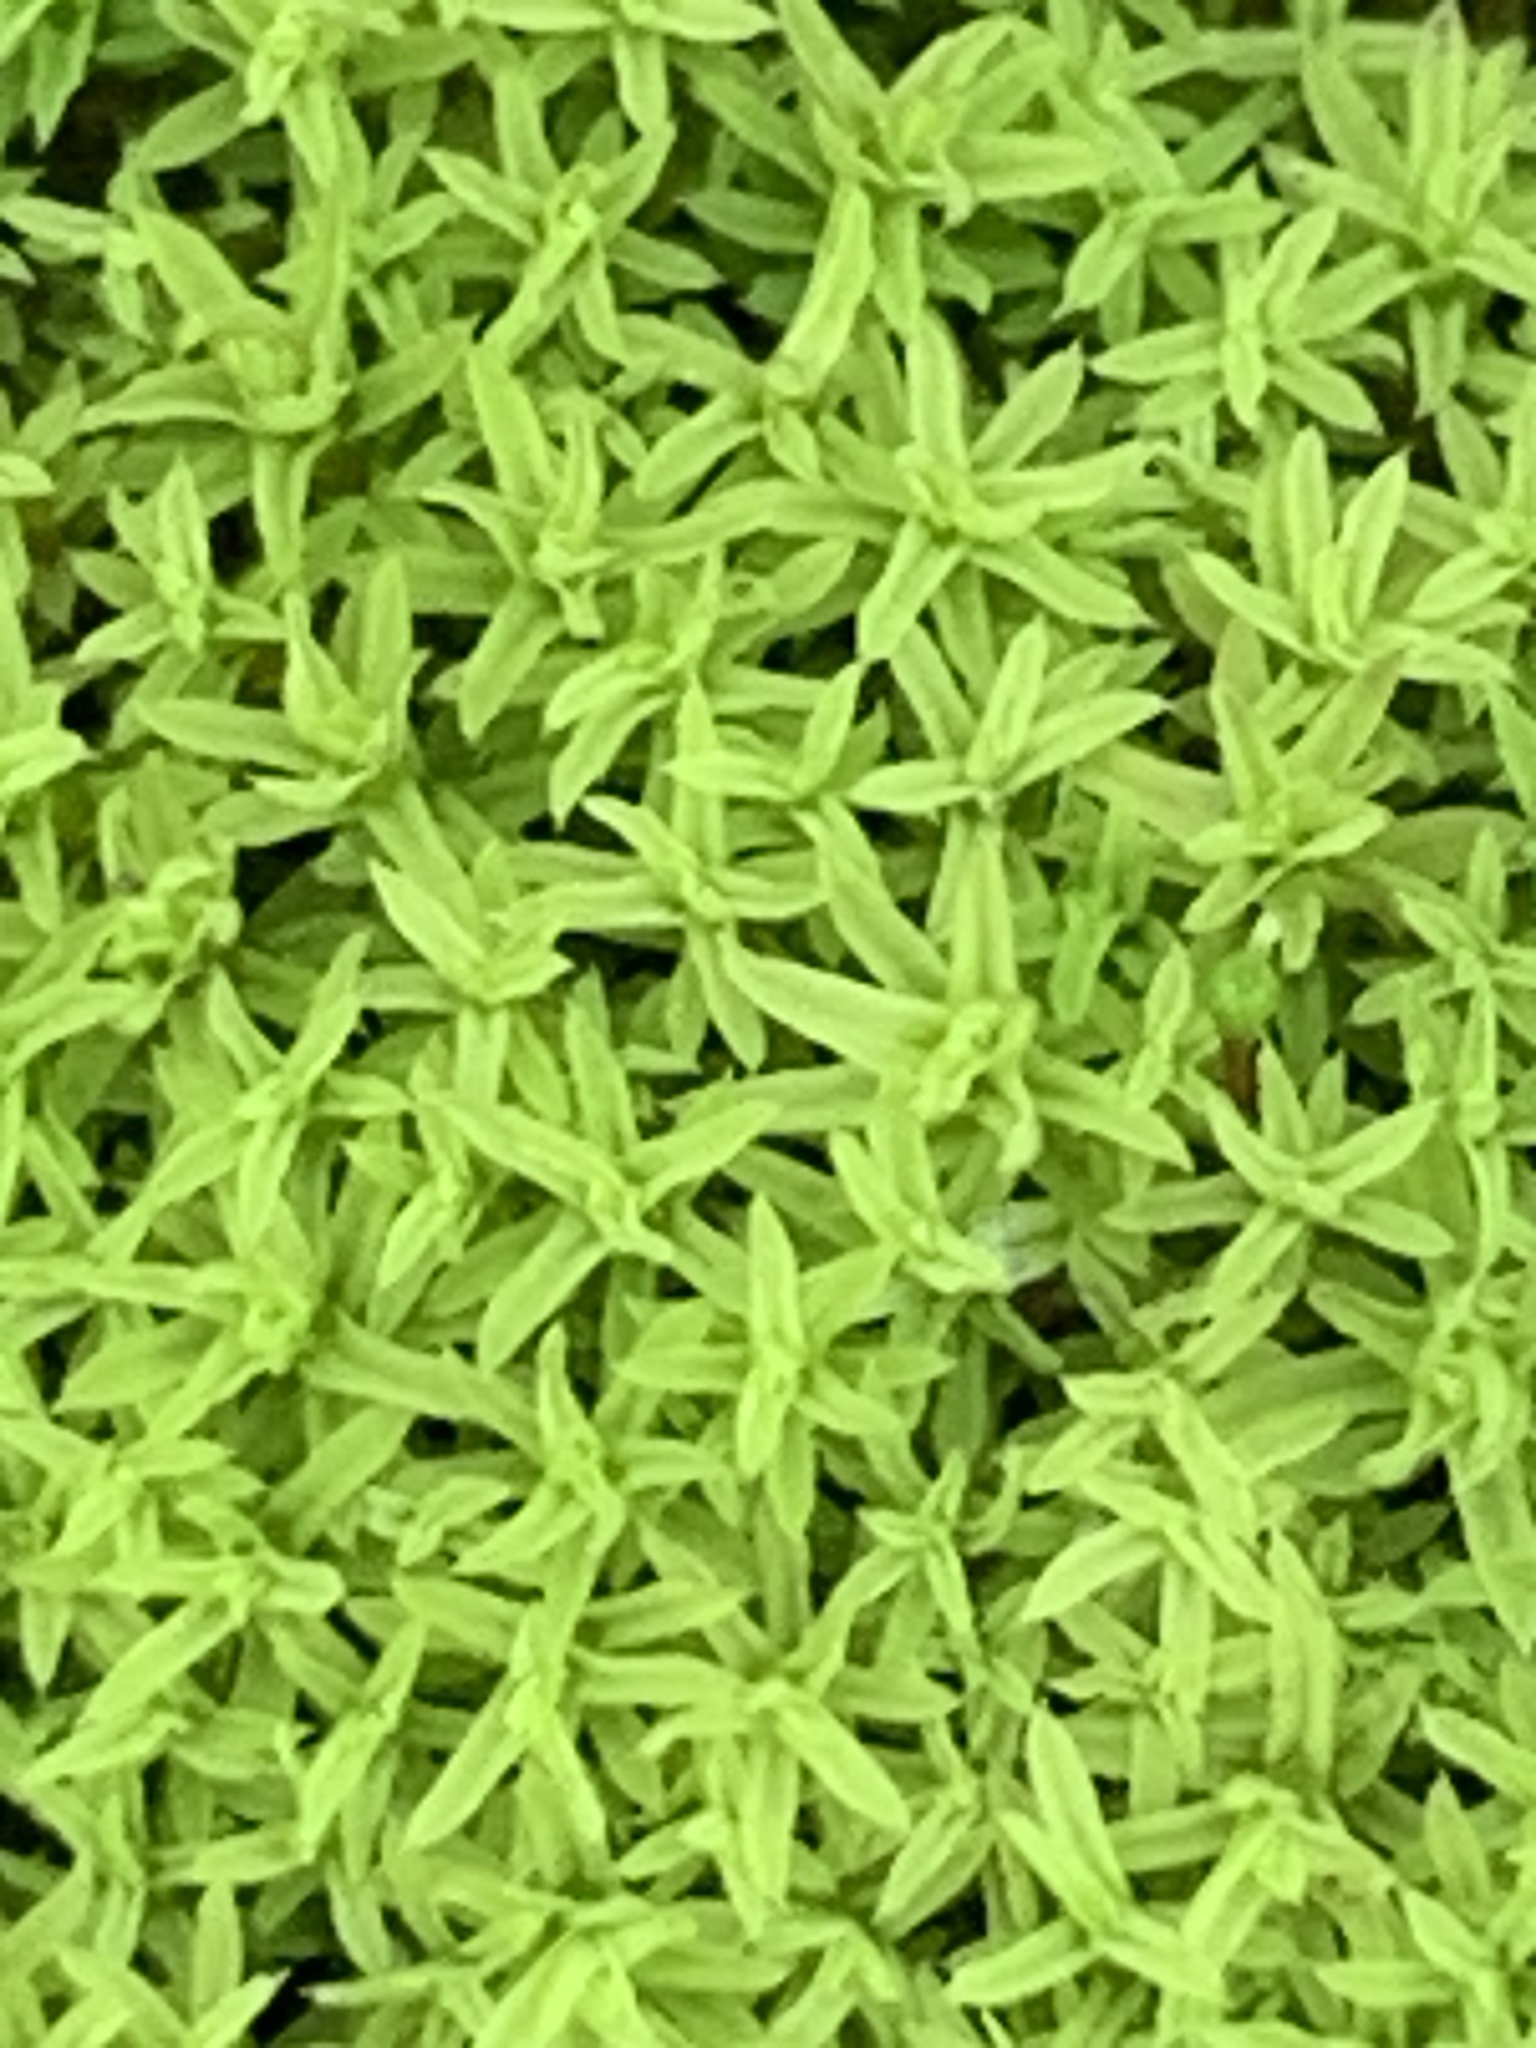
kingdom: Plantae
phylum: Bryophyta
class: Bryopsida
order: Pottiales
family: Pottiaceae
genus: Barbula
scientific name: Barbula unguiculata
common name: Prickly beard moss
